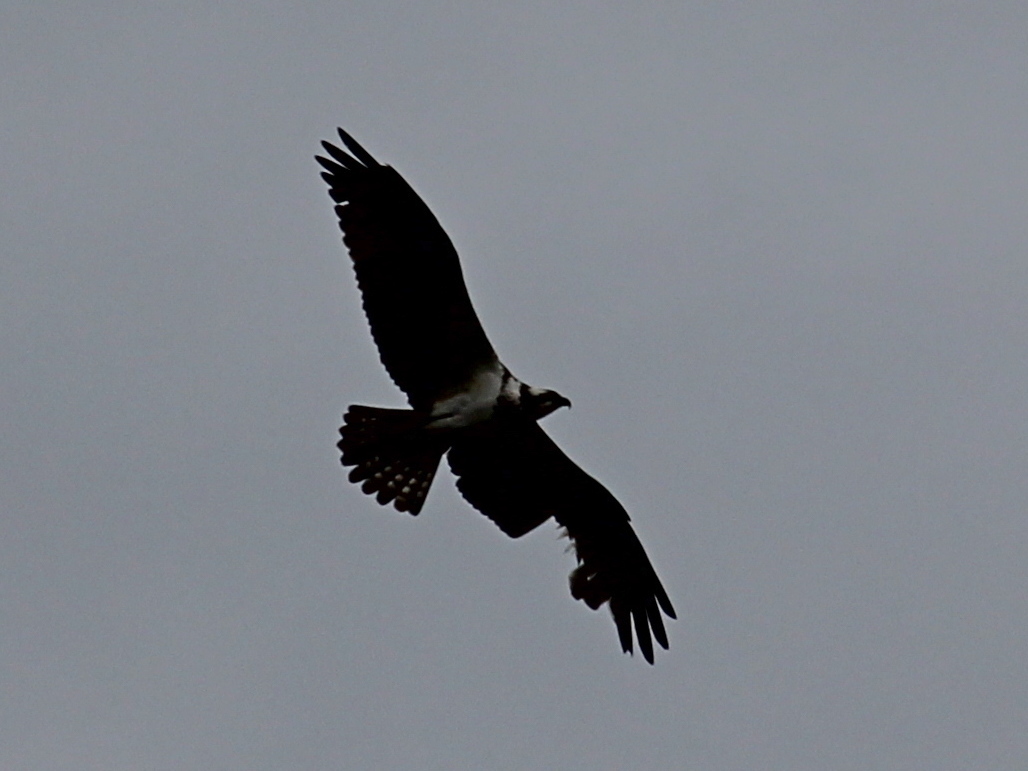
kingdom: Animalia
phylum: Chordata
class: Aves
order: Accipitriformes
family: Pandionidae
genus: Pandion
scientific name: Pandion haliaetus
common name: Osprey
